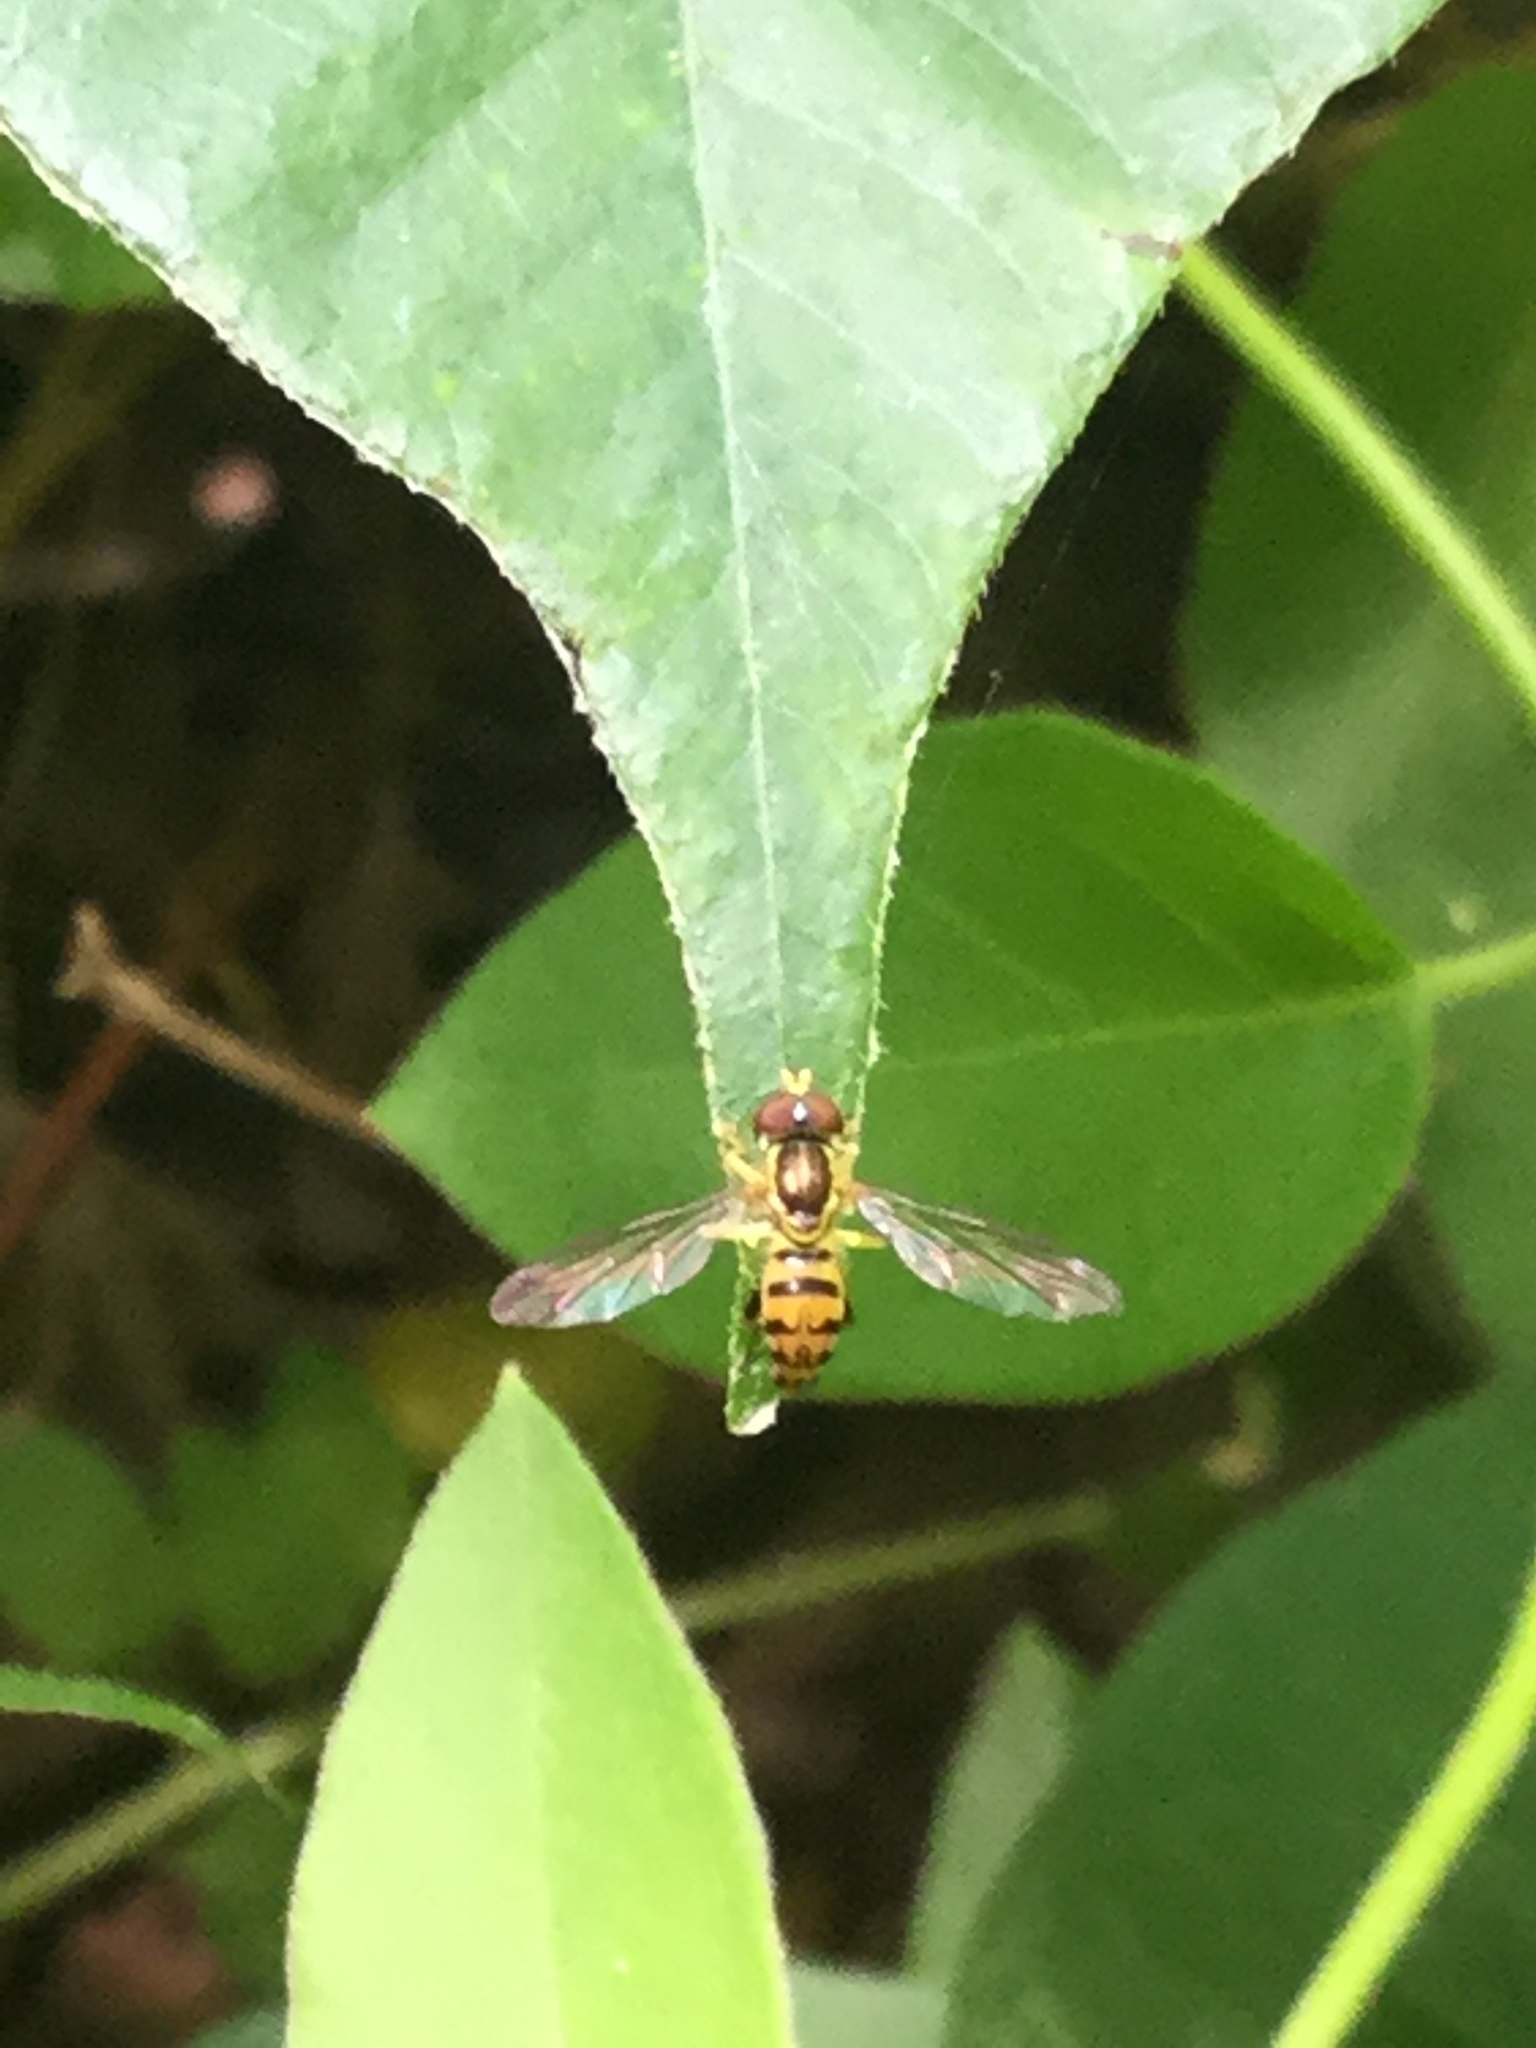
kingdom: Animalia
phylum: Arthropoda
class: Insecta
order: Diptera
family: Syrphidae
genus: Toxomerus
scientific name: Toxomerus geminatus
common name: Eastern calligrapher
